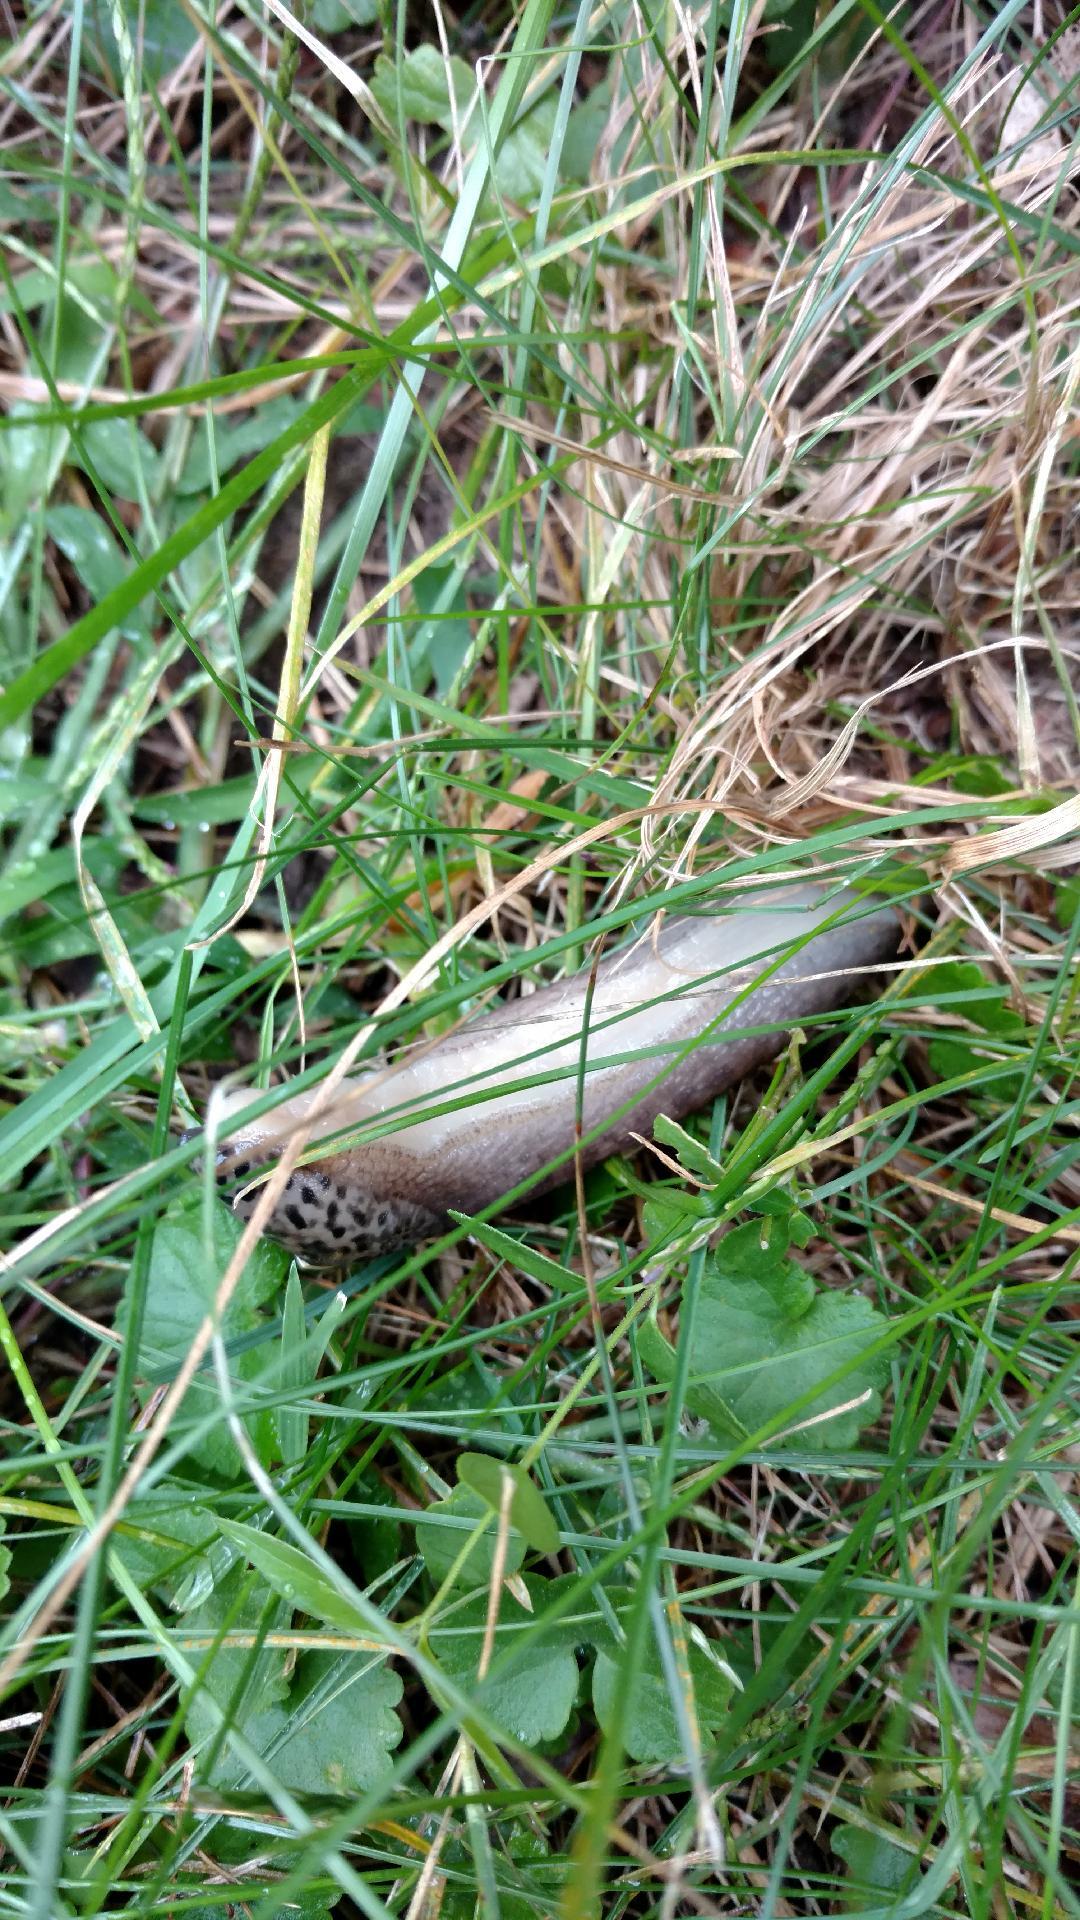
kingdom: Animalia
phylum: Mollusca
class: Gastropoda
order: Stylommatophora
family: Limacidae
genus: Limax
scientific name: Limax maximus
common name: Great grey slug
